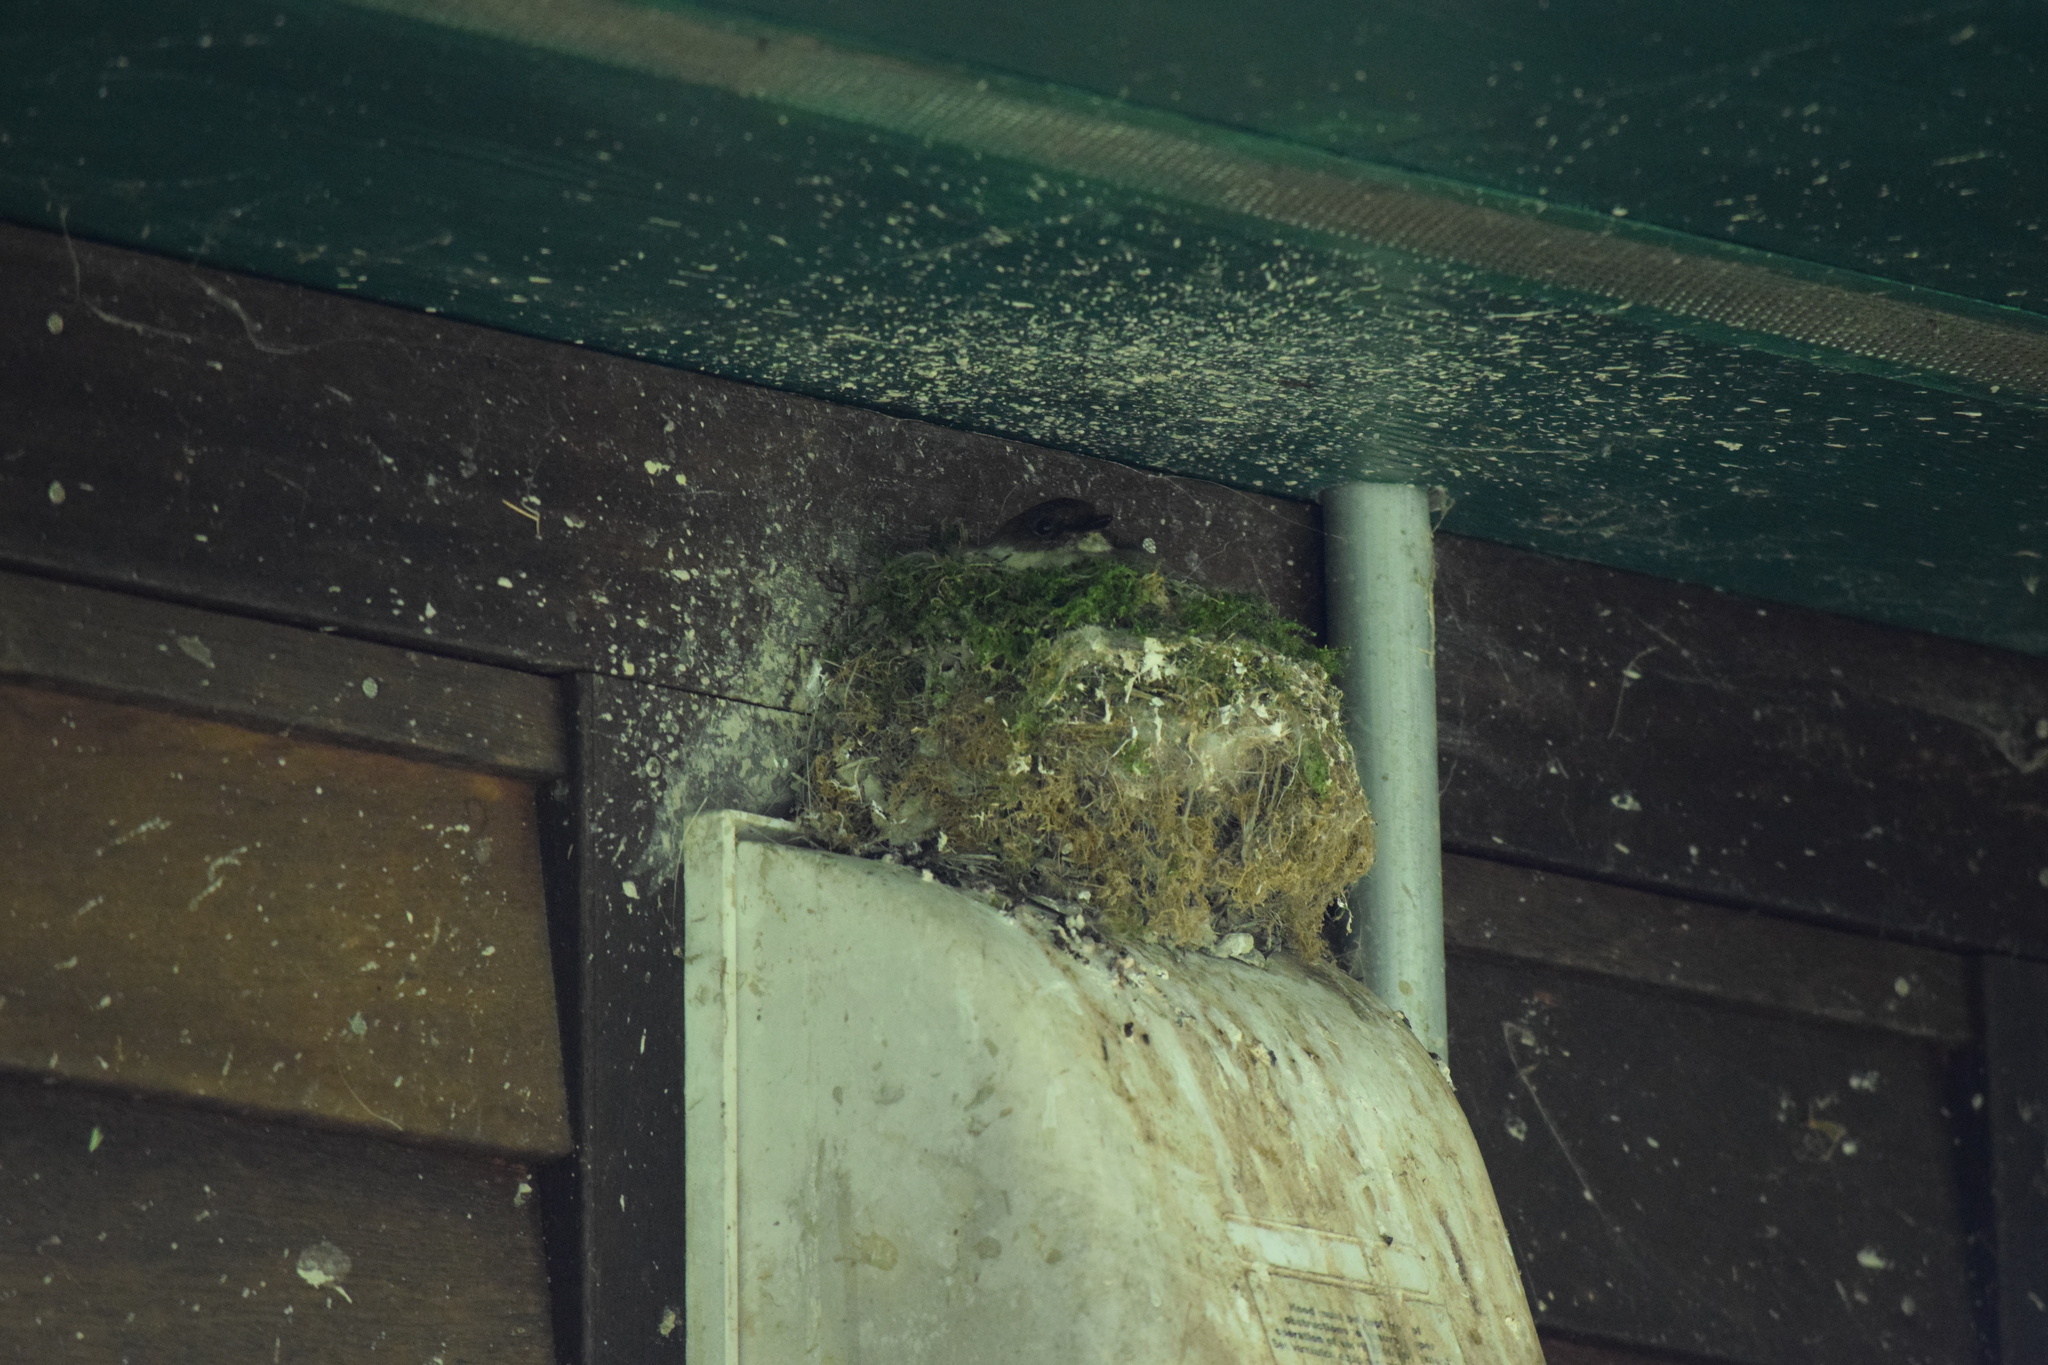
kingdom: Animalia
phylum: Chordata
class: Aves
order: Passeriformes
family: Tyrannidae
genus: Sayornis
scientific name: Sayornis phoebe
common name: Eastern phoebe
